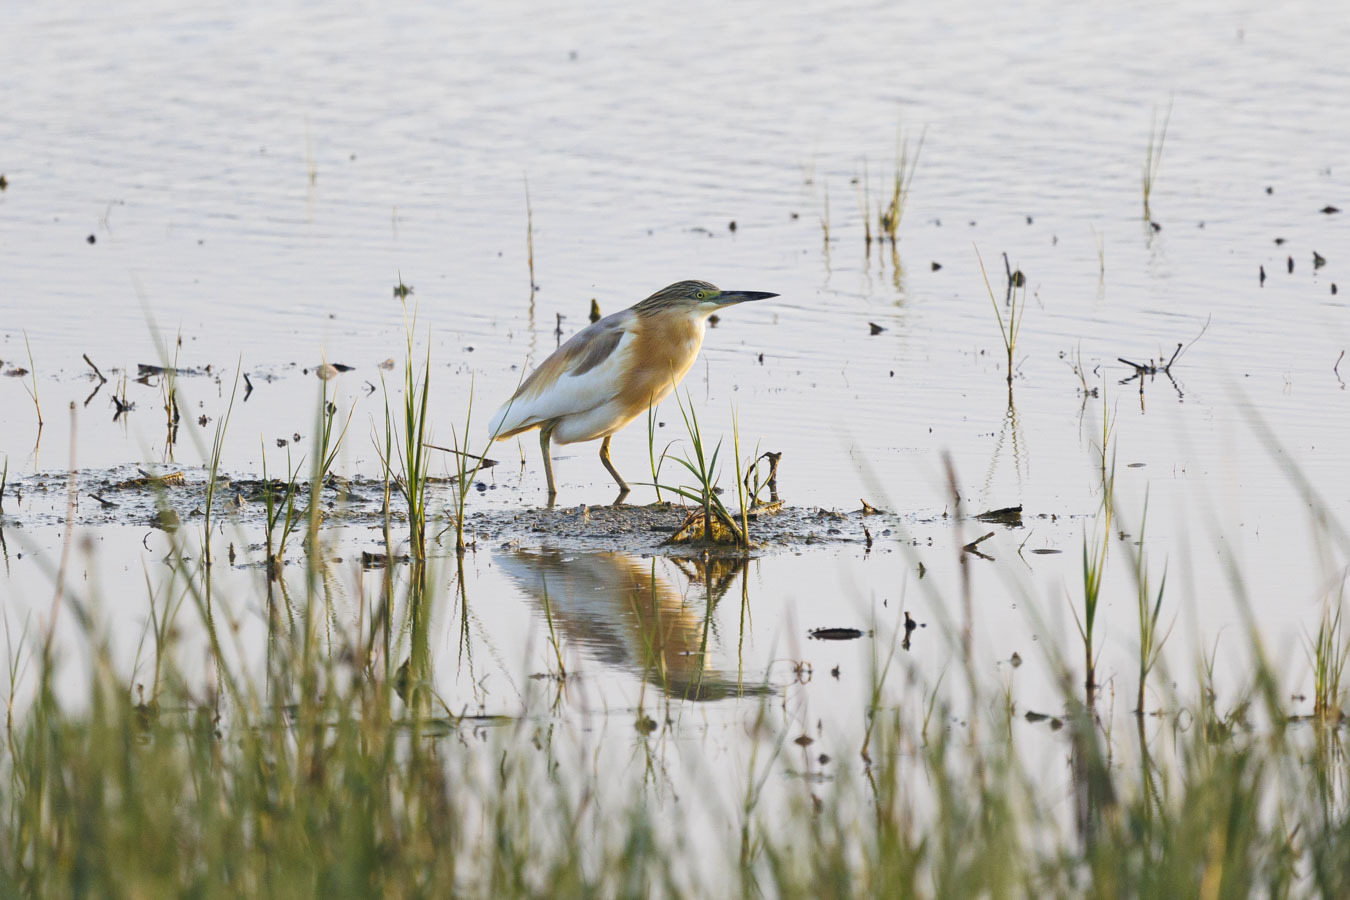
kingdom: Animalia
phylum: Chordata
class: Aves
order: Pelecaniformes
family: Ardeidae
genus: Ardeola
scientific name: Ardeola ralloides
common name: Squacco heron
